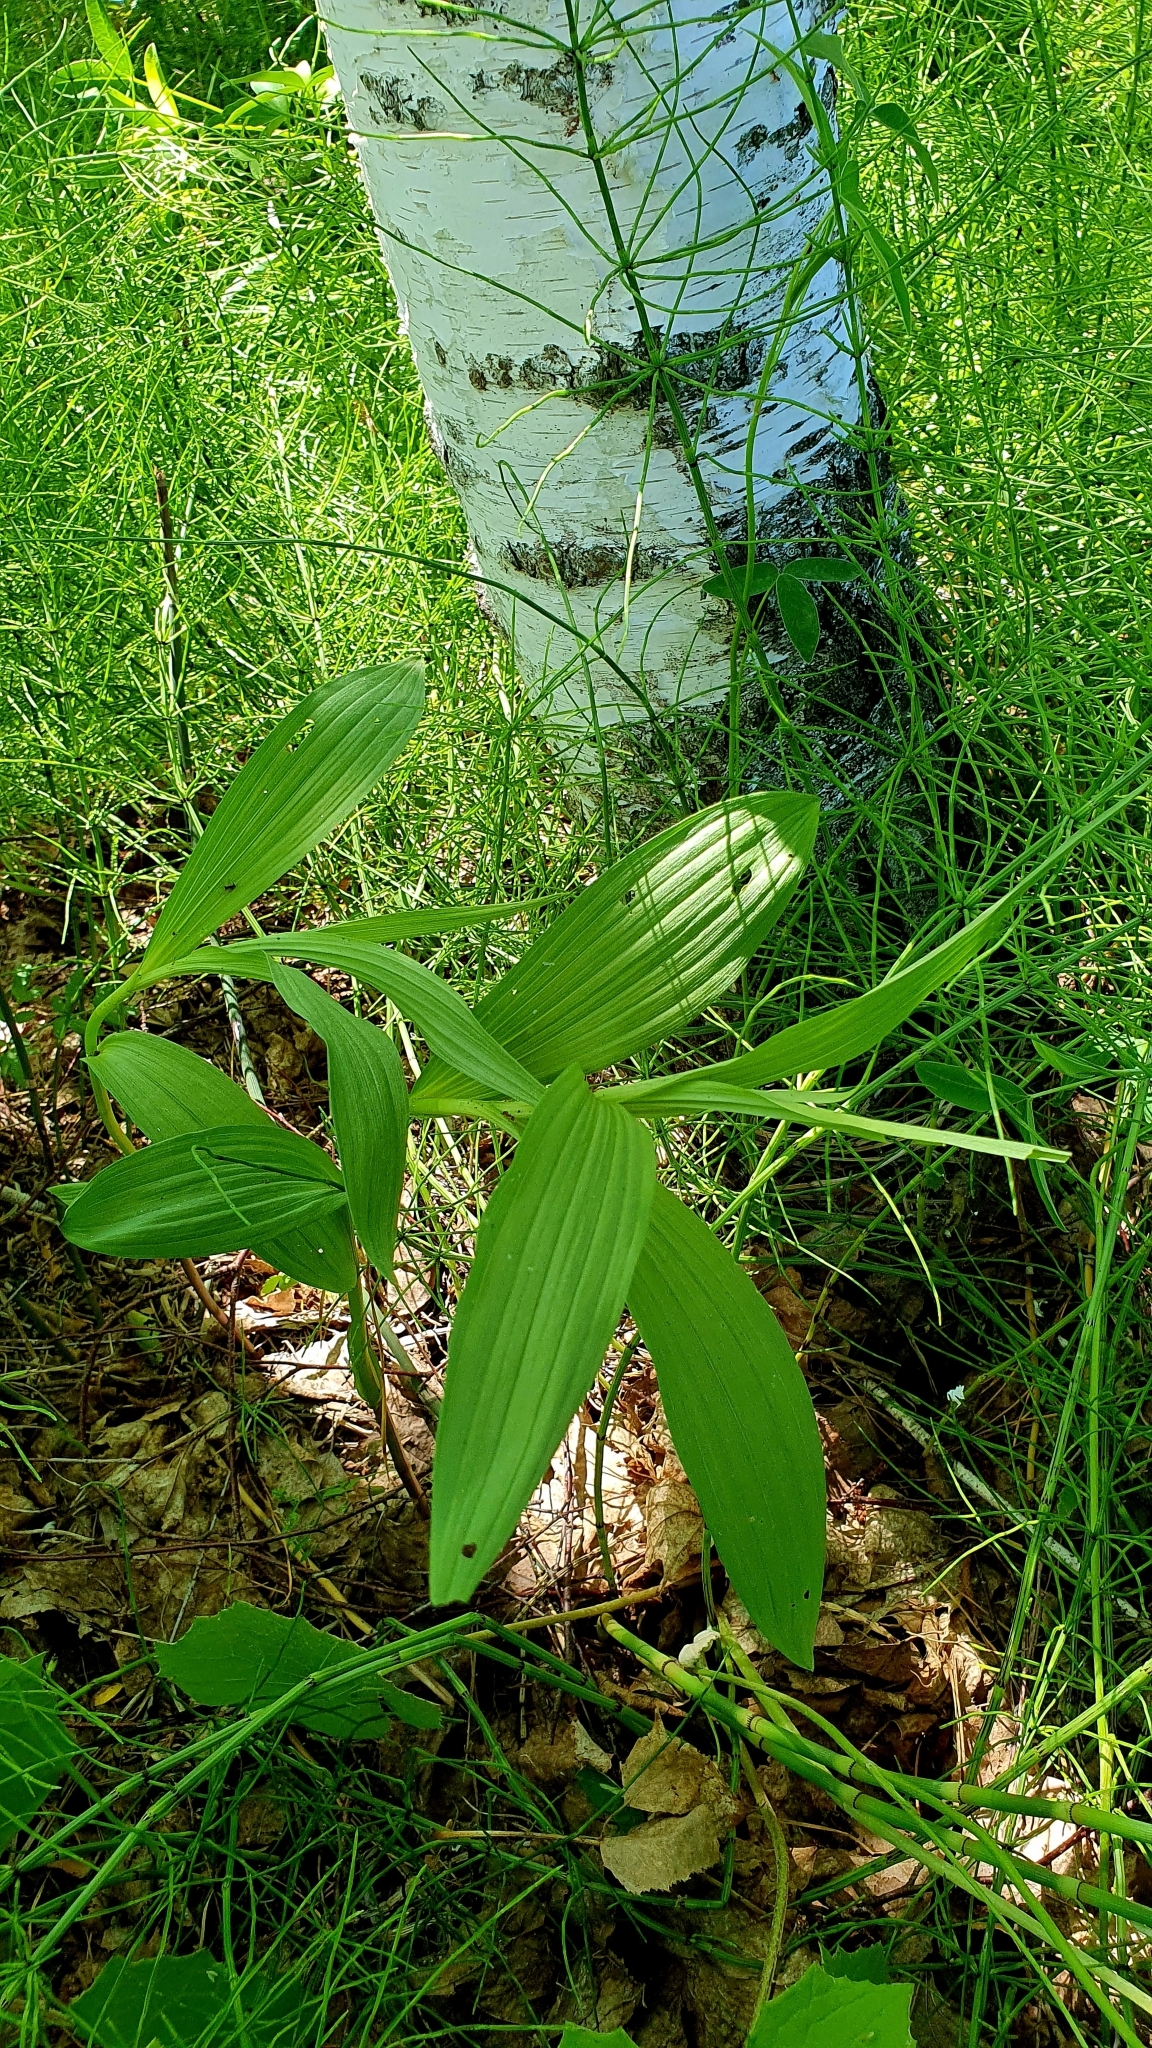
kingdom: Plantae
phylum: Tracheophyta
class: Liliopsida
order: Asparagales
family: Orchidaceae
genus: Epipactis
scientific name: Epipactis palustris
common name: Marsh helleborine
